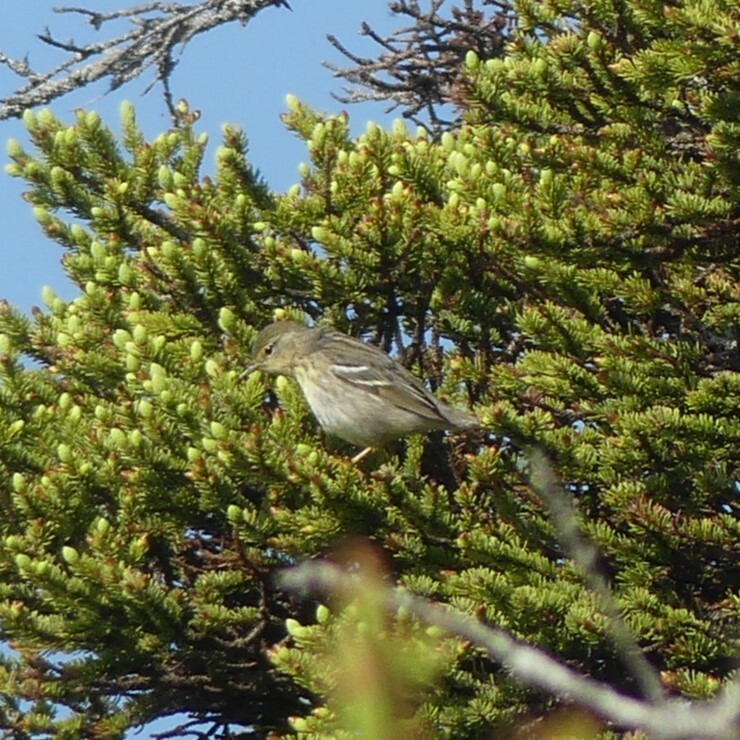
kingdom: Animalia
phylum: Chordata
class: Aves
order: Passeriformes
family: Parulidae
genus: Setophaga
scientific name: Setophaga striata
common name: Blackpoll warbler
